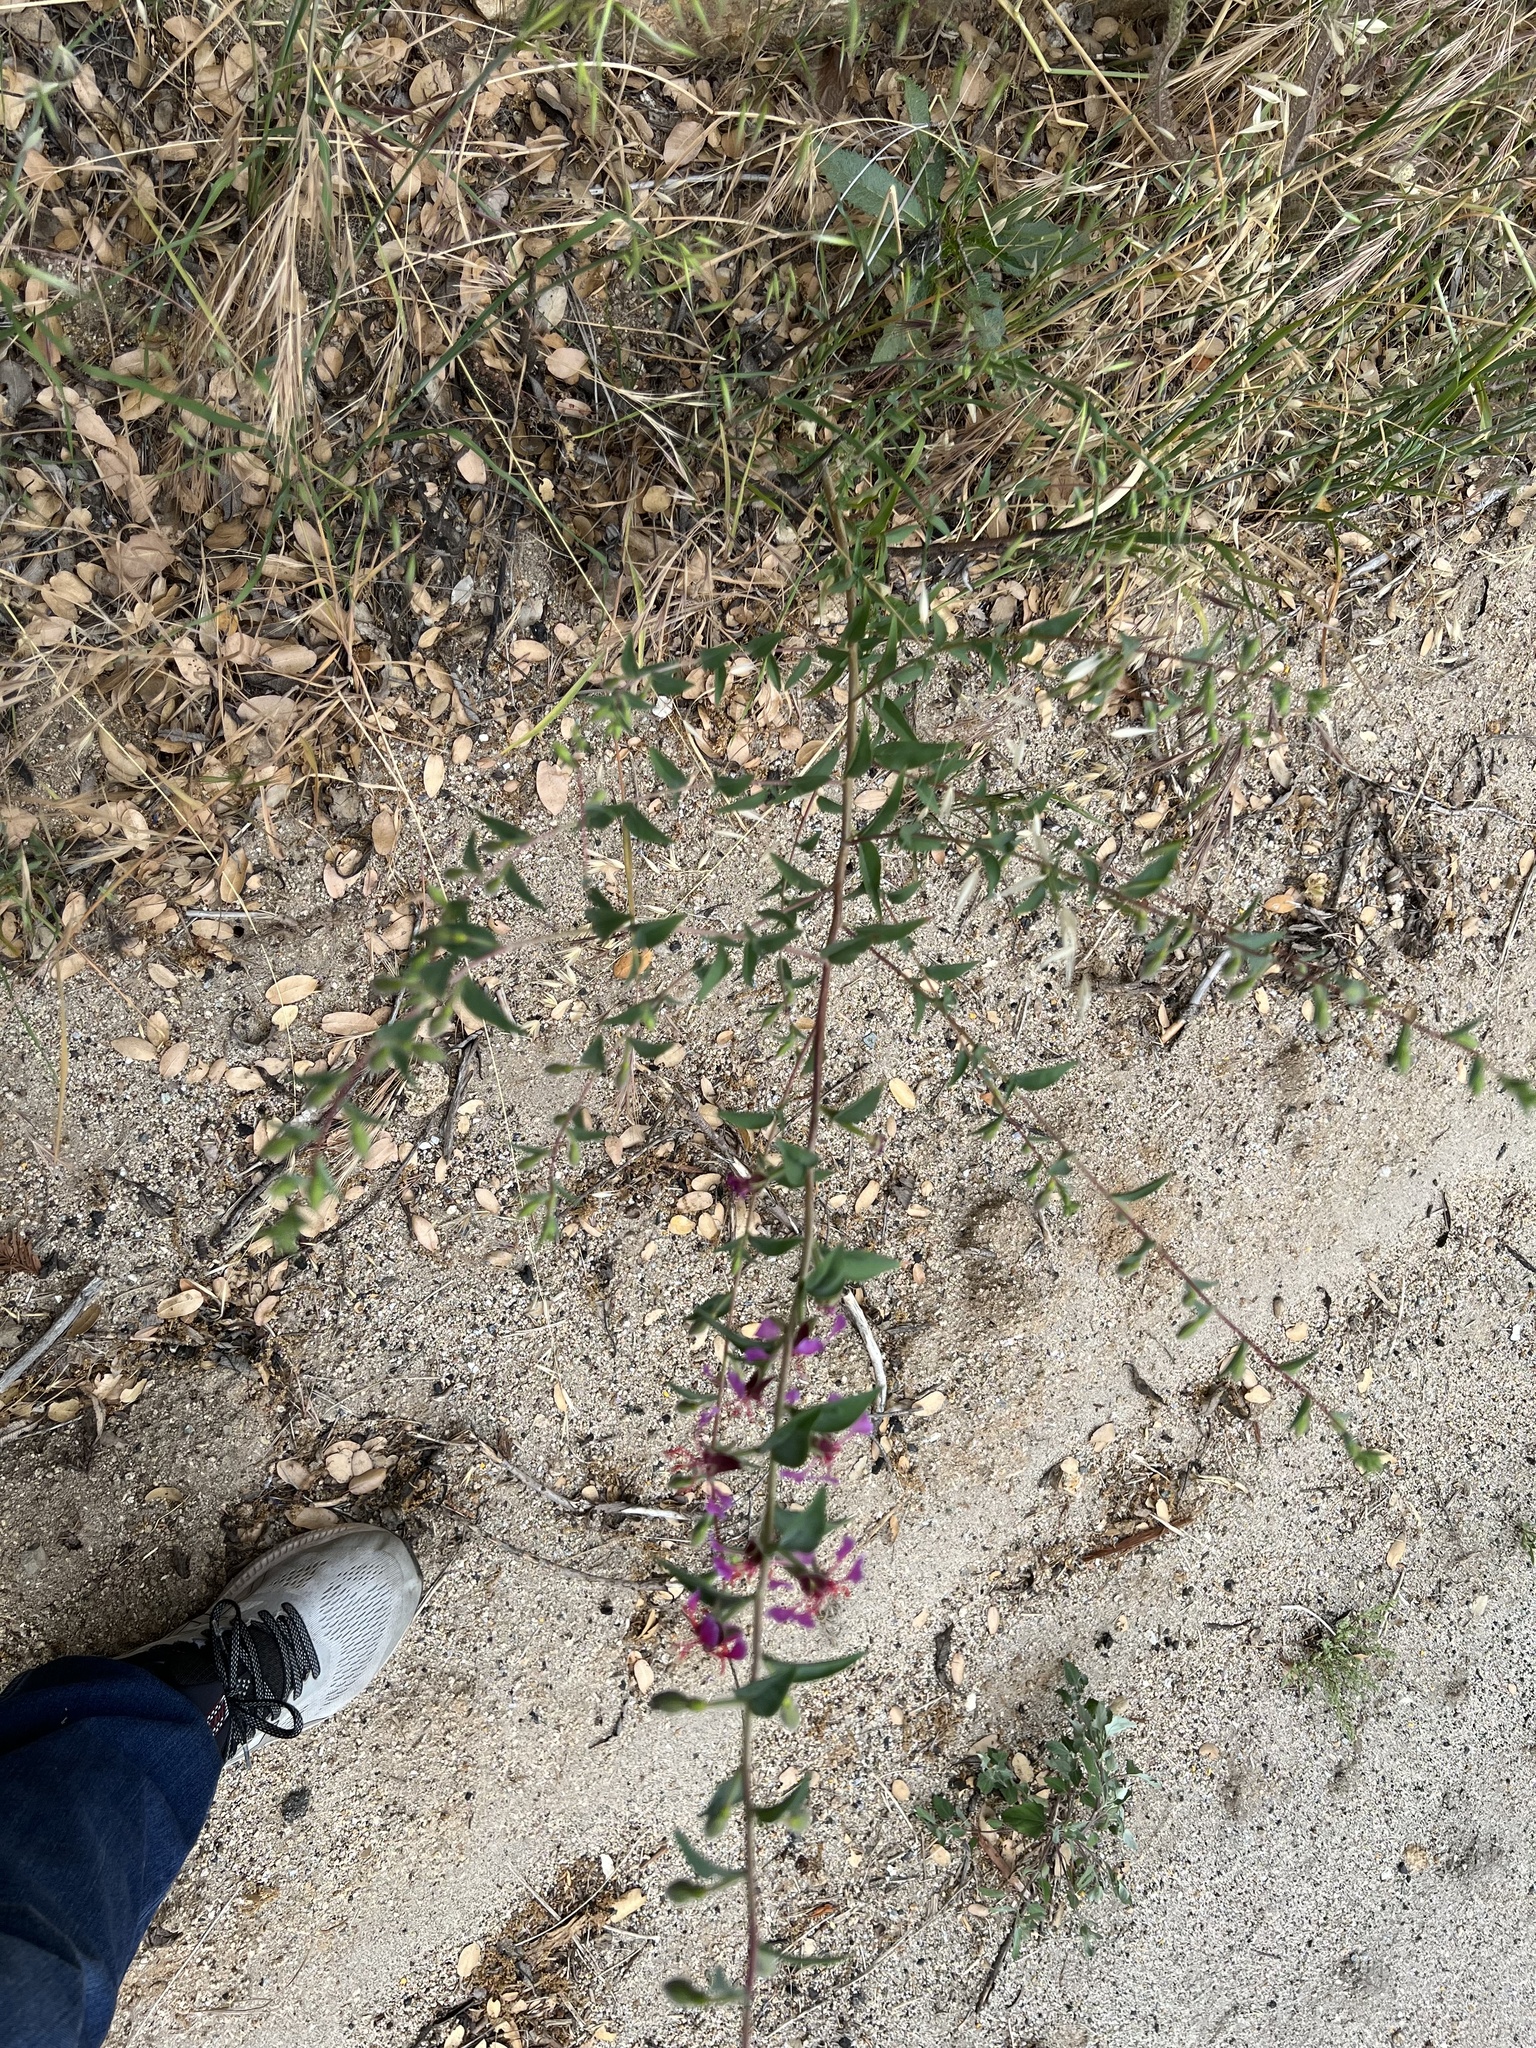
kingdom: Plantae
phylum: Tracheophyta
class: Magnoliopsida
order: Myrtales
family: Onagraceae
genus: Clarkia
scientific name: Clarkia unguiculata
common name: Clarkia
